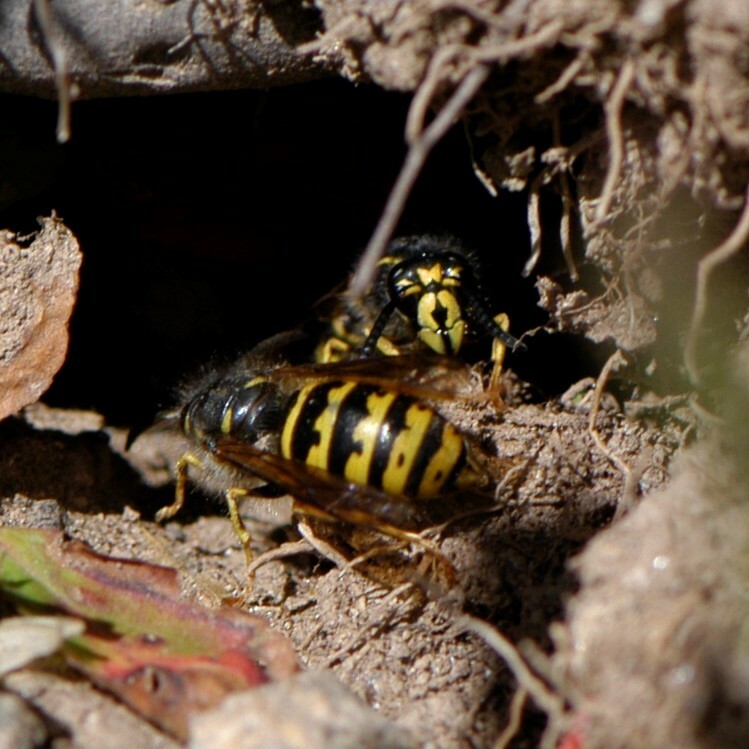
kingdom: Animalia
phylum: Arthropoda
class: Insecta
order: Hymenoptera
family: Vespidae
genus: Dolichovespula
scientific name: Dolichovespula alpicola
